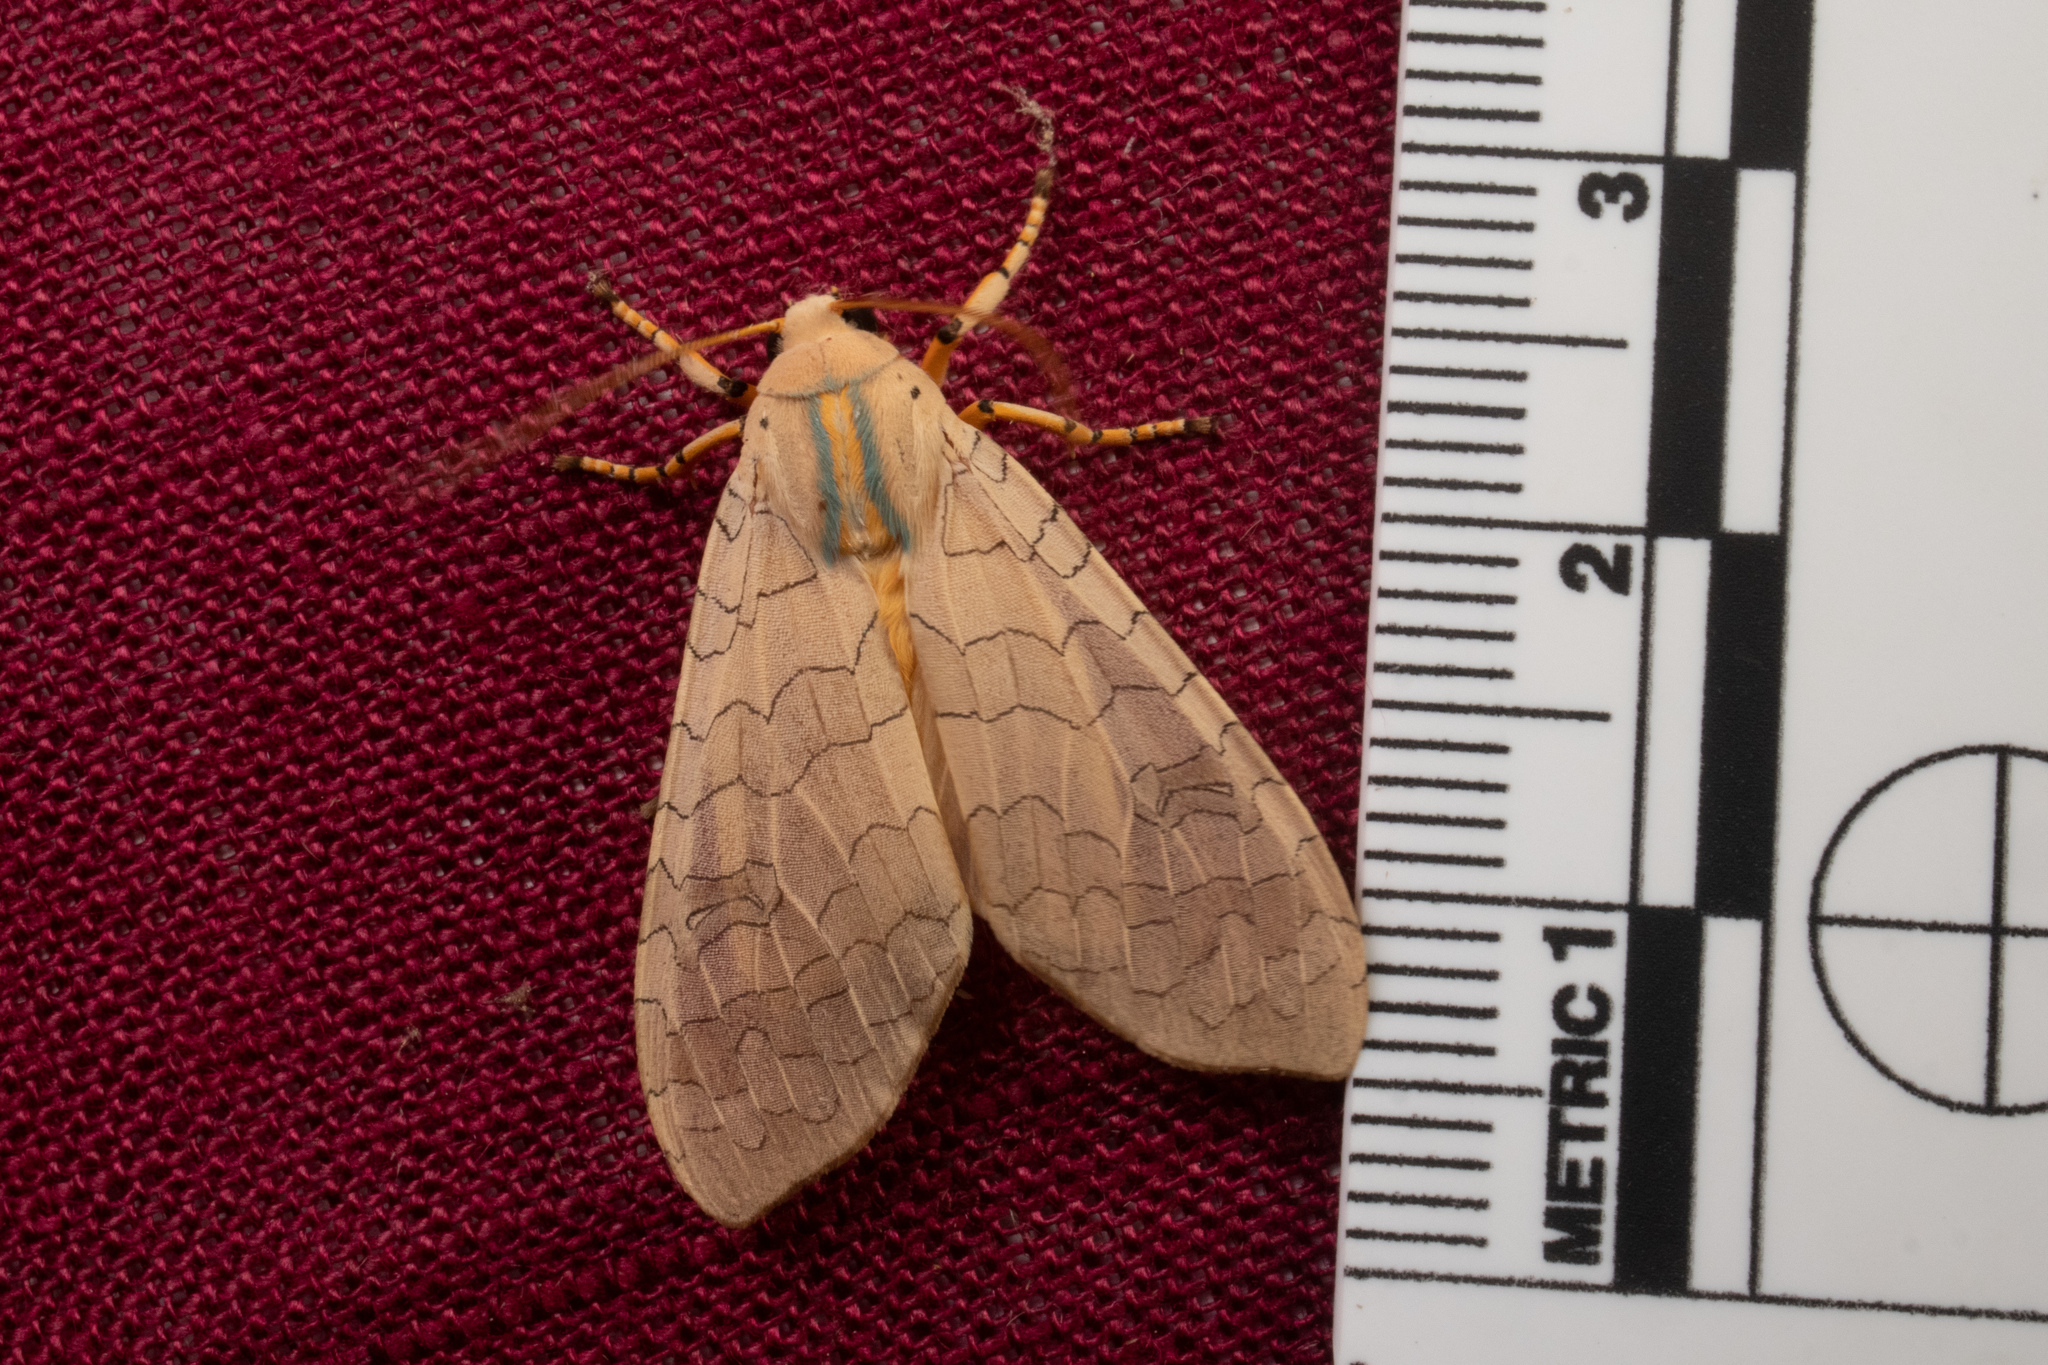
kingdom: Animalia
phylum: Arthropoda
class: Insecta
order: Lepidoptera
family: Erebidae
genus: Halysidota
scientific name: Halysidota
